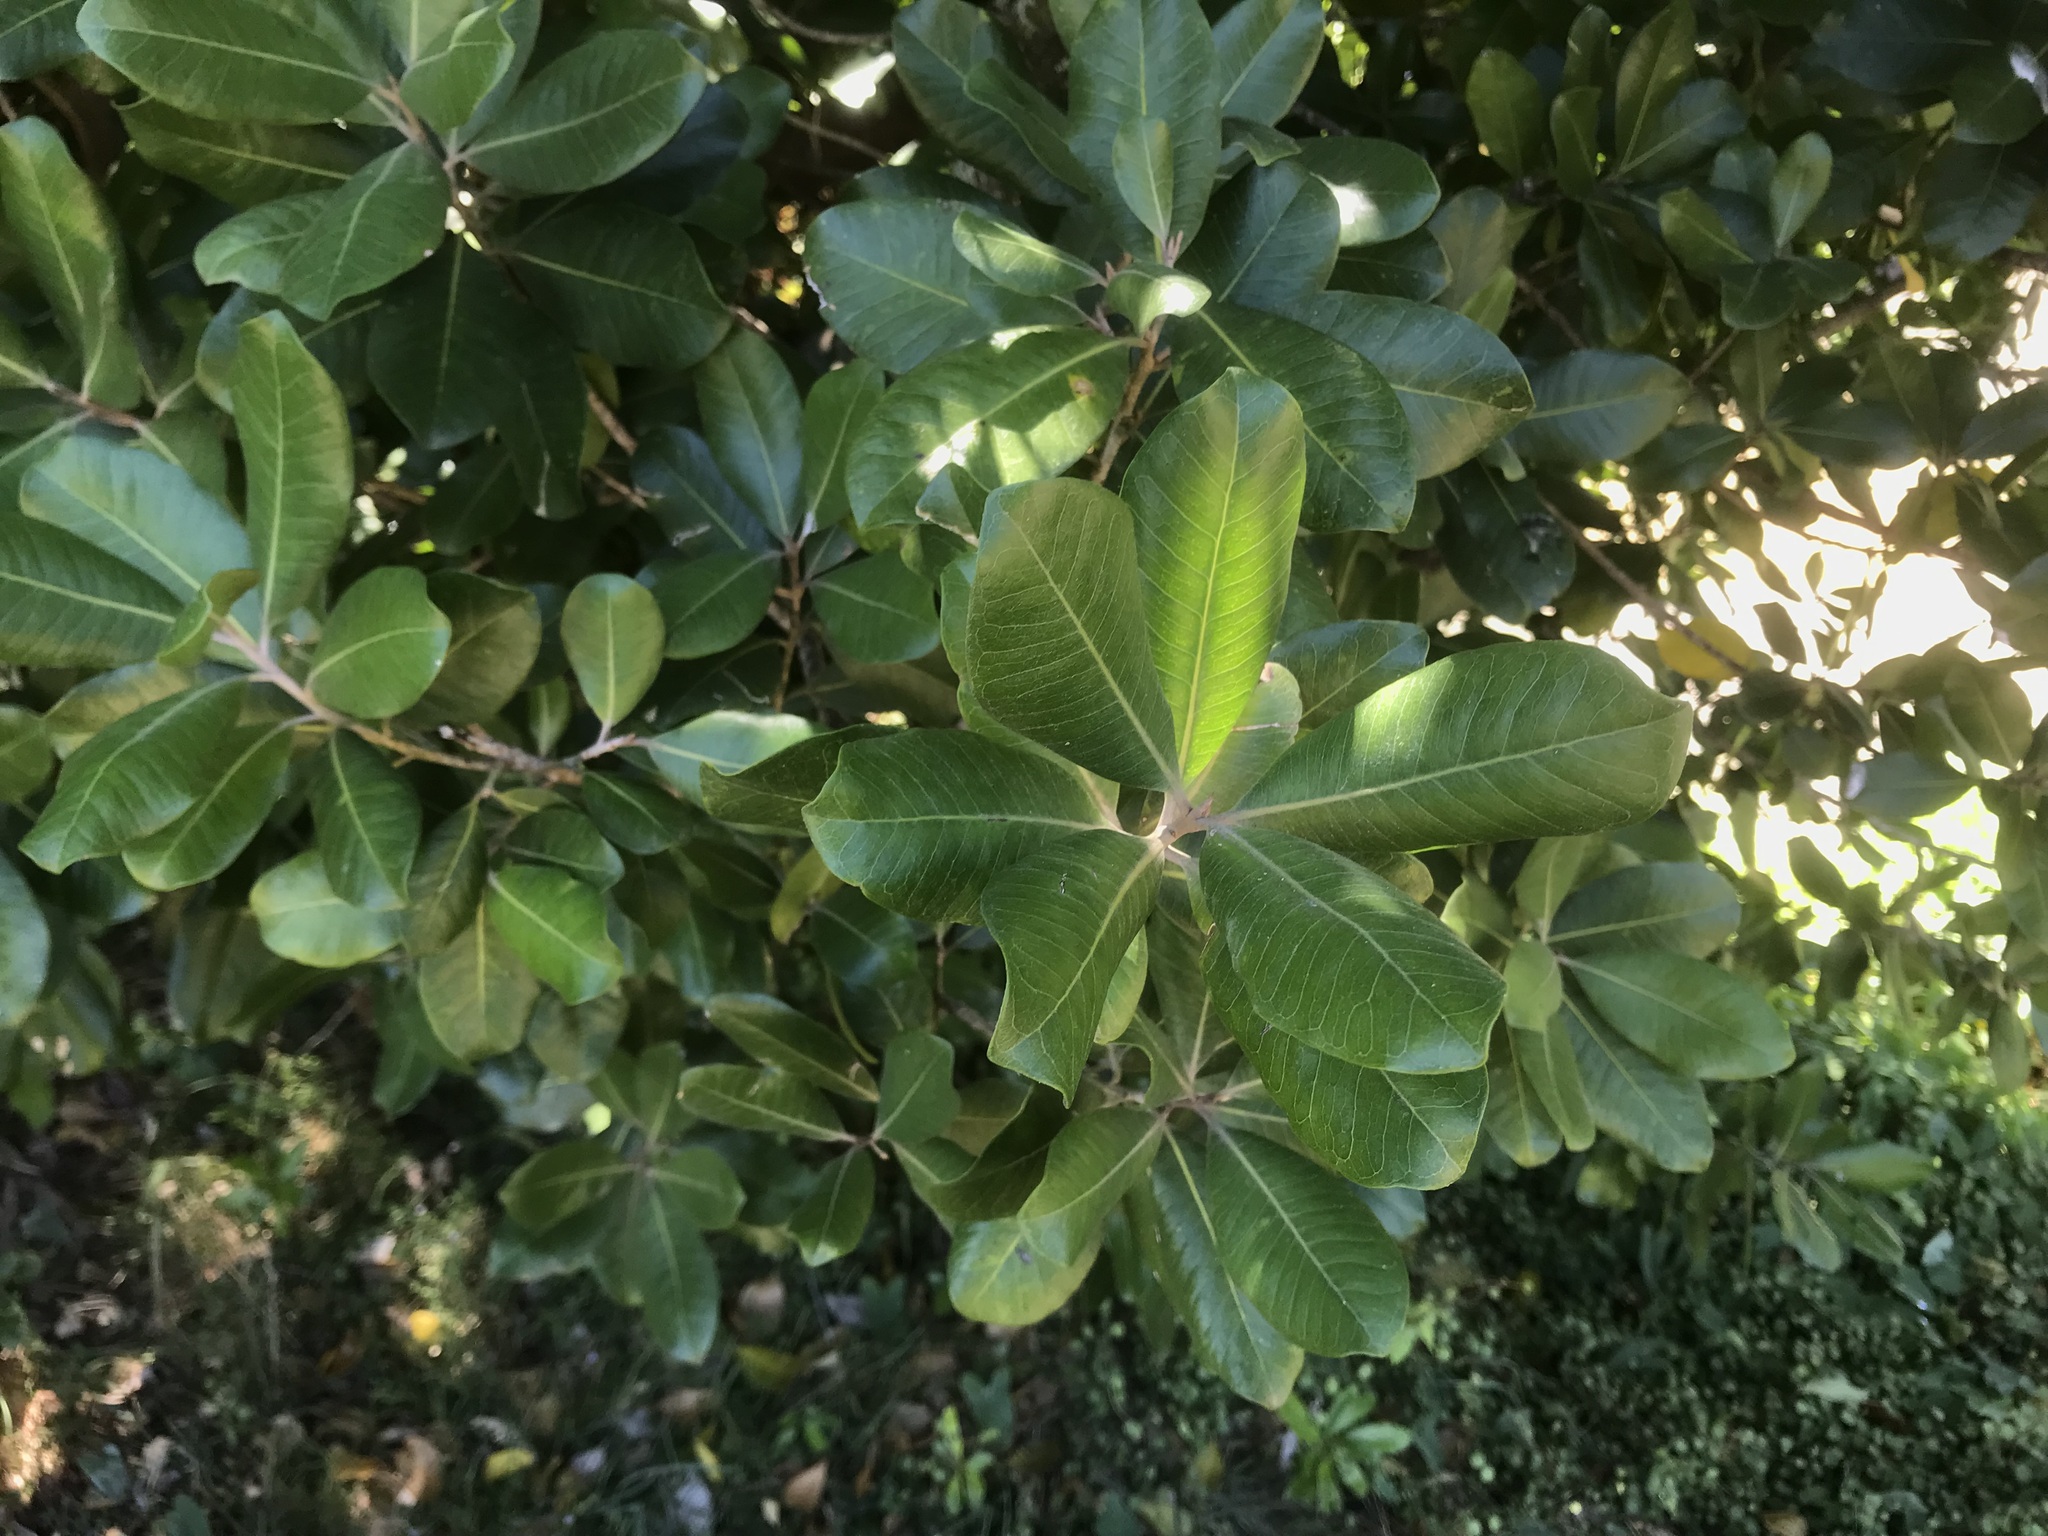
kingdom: Plantae
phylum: Tracheophyta
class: Magnoliopsida
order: Ericales
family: Sapotaceae
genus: Planchonella
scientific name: Planchonella costata
